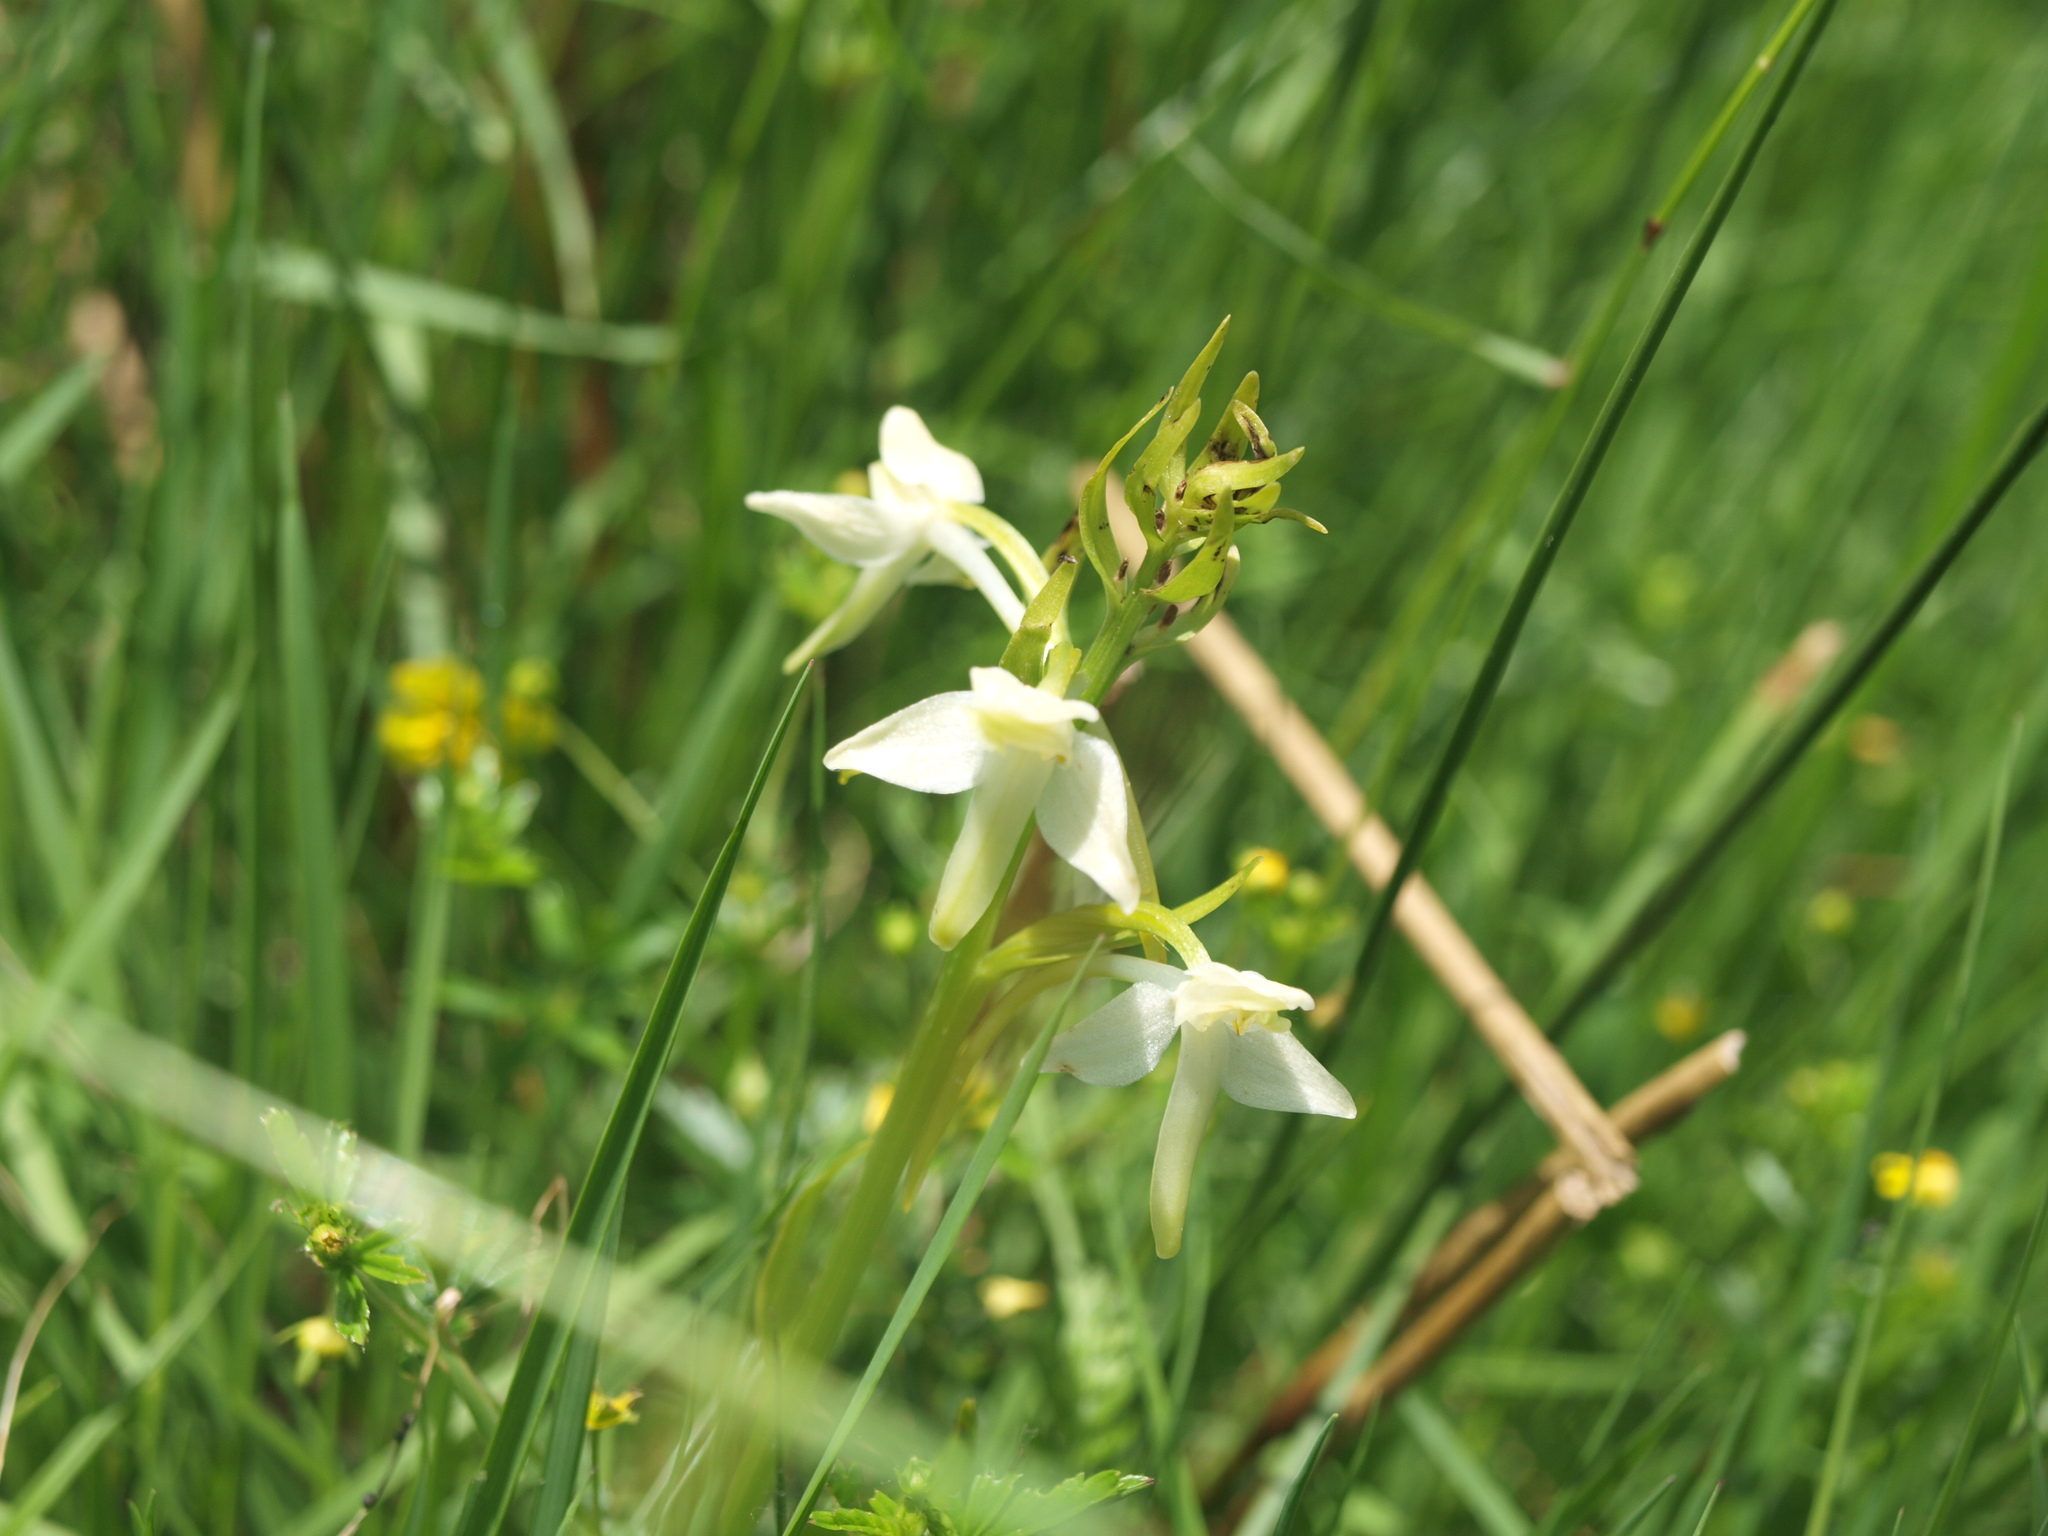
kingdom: Plantae
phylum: Tracheophyta
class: Liliopsida
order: Asparagales
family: Orchidaceae
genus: Platanthera
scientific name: Platanthera bifolia
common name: Lesser butterfly-orchid
